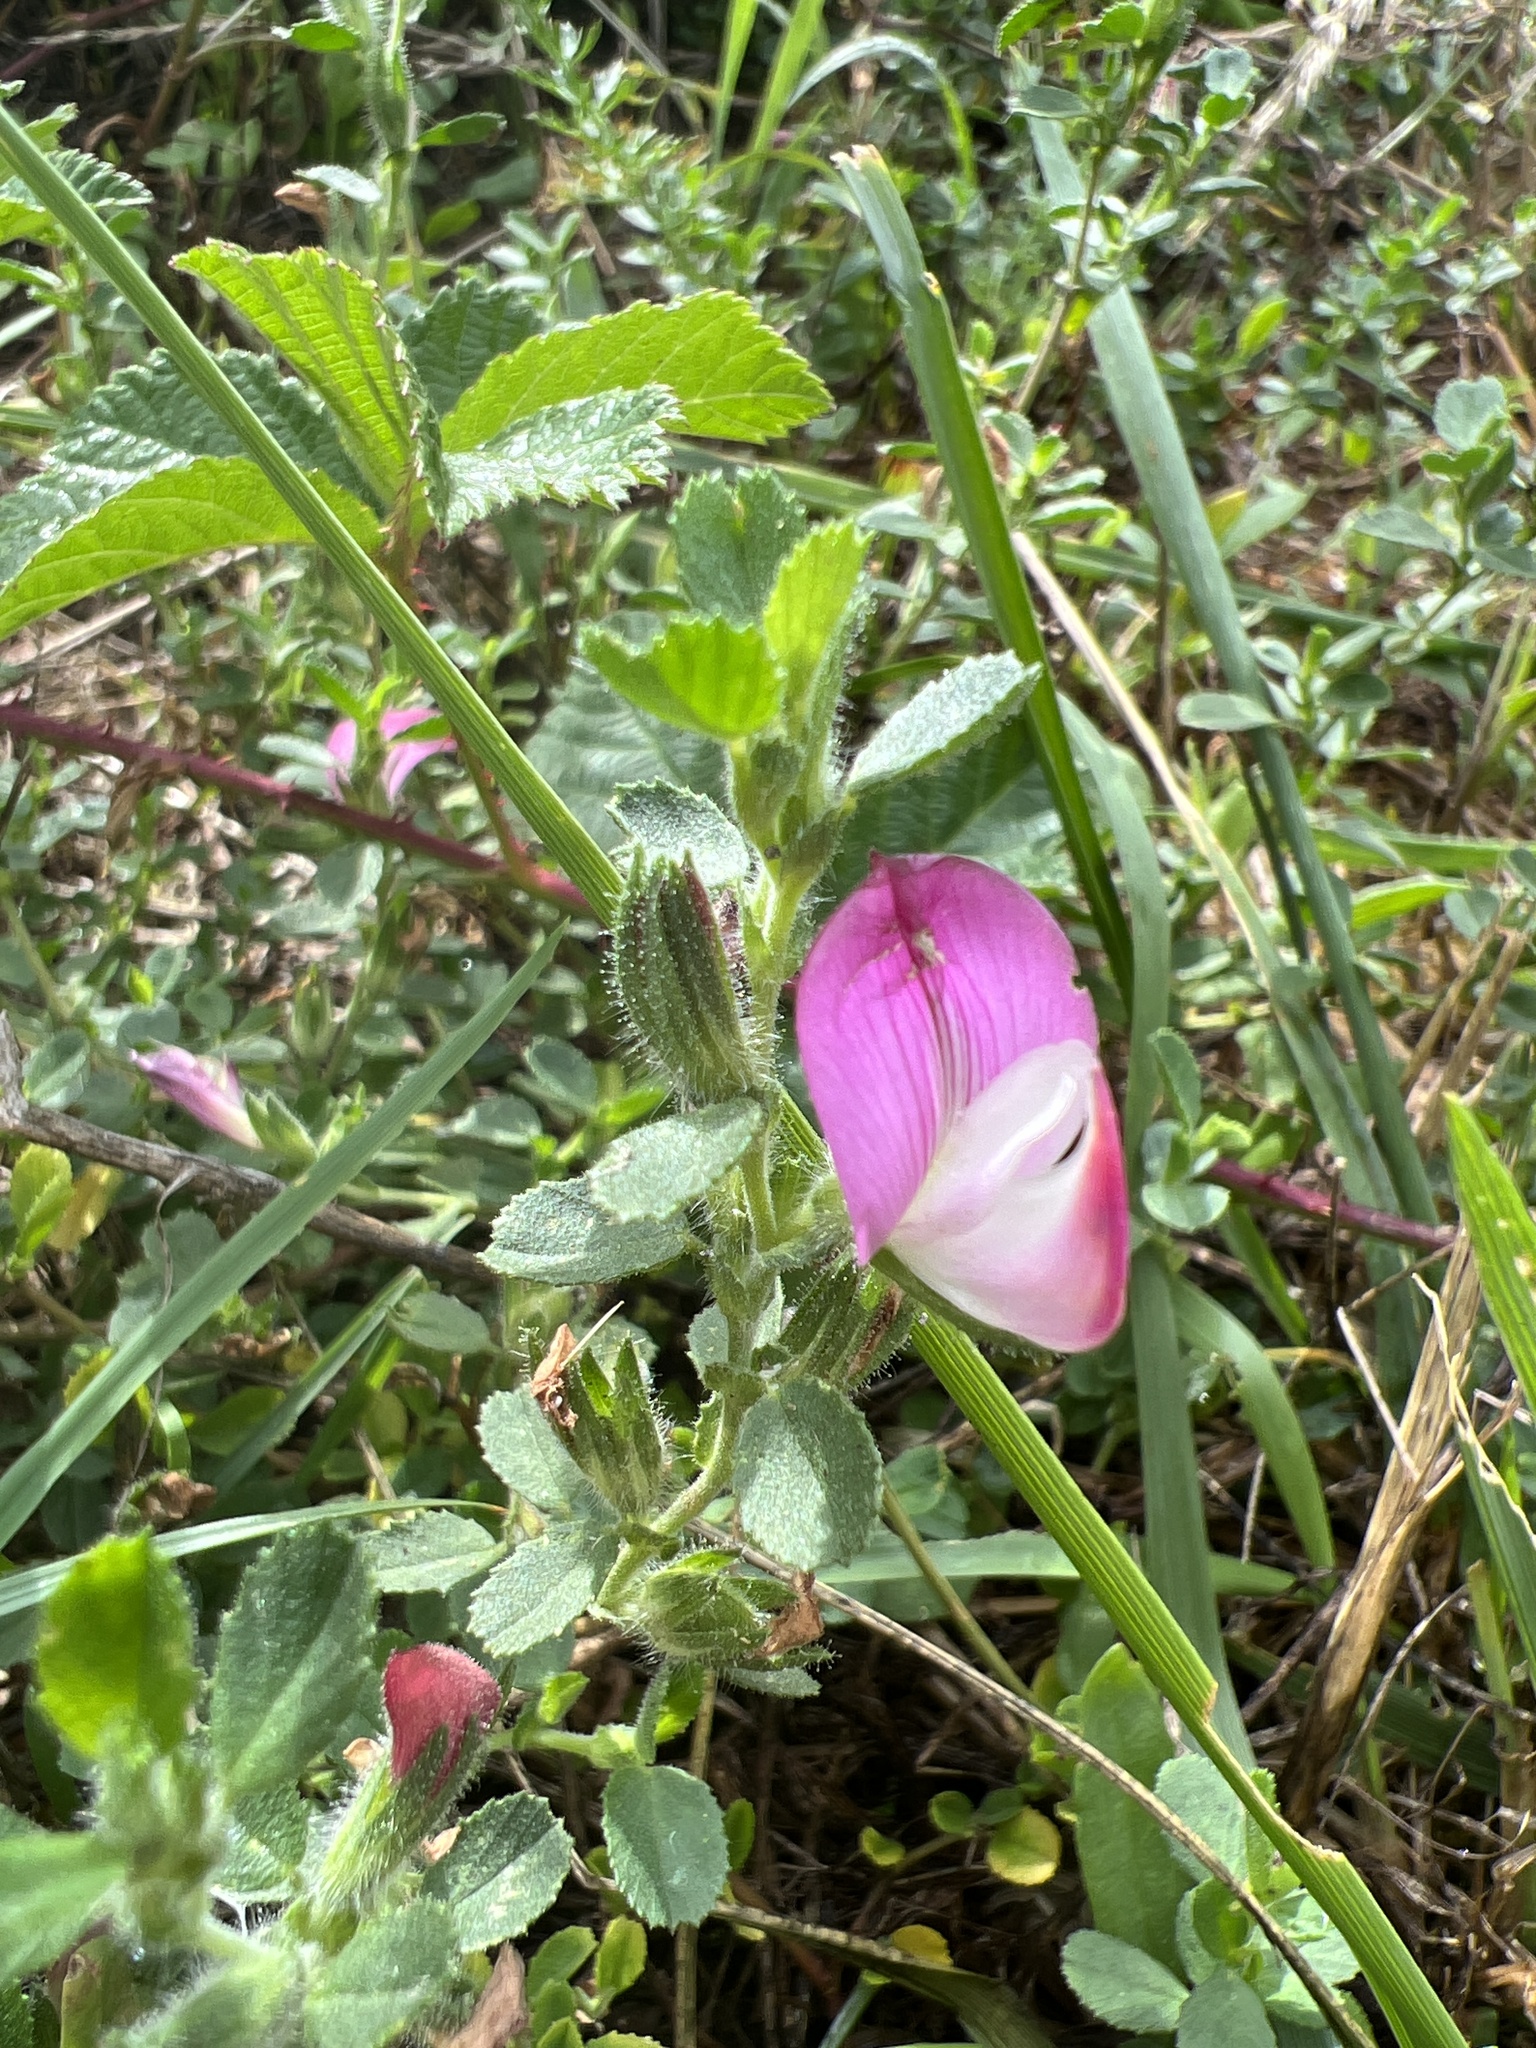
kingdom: Plantae
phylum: Tracheophyta
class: Magnoliopsida
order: Fabales
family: Fabaceae
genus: Ononis
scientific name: Ononis spinosa
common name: Spiny restharrow
